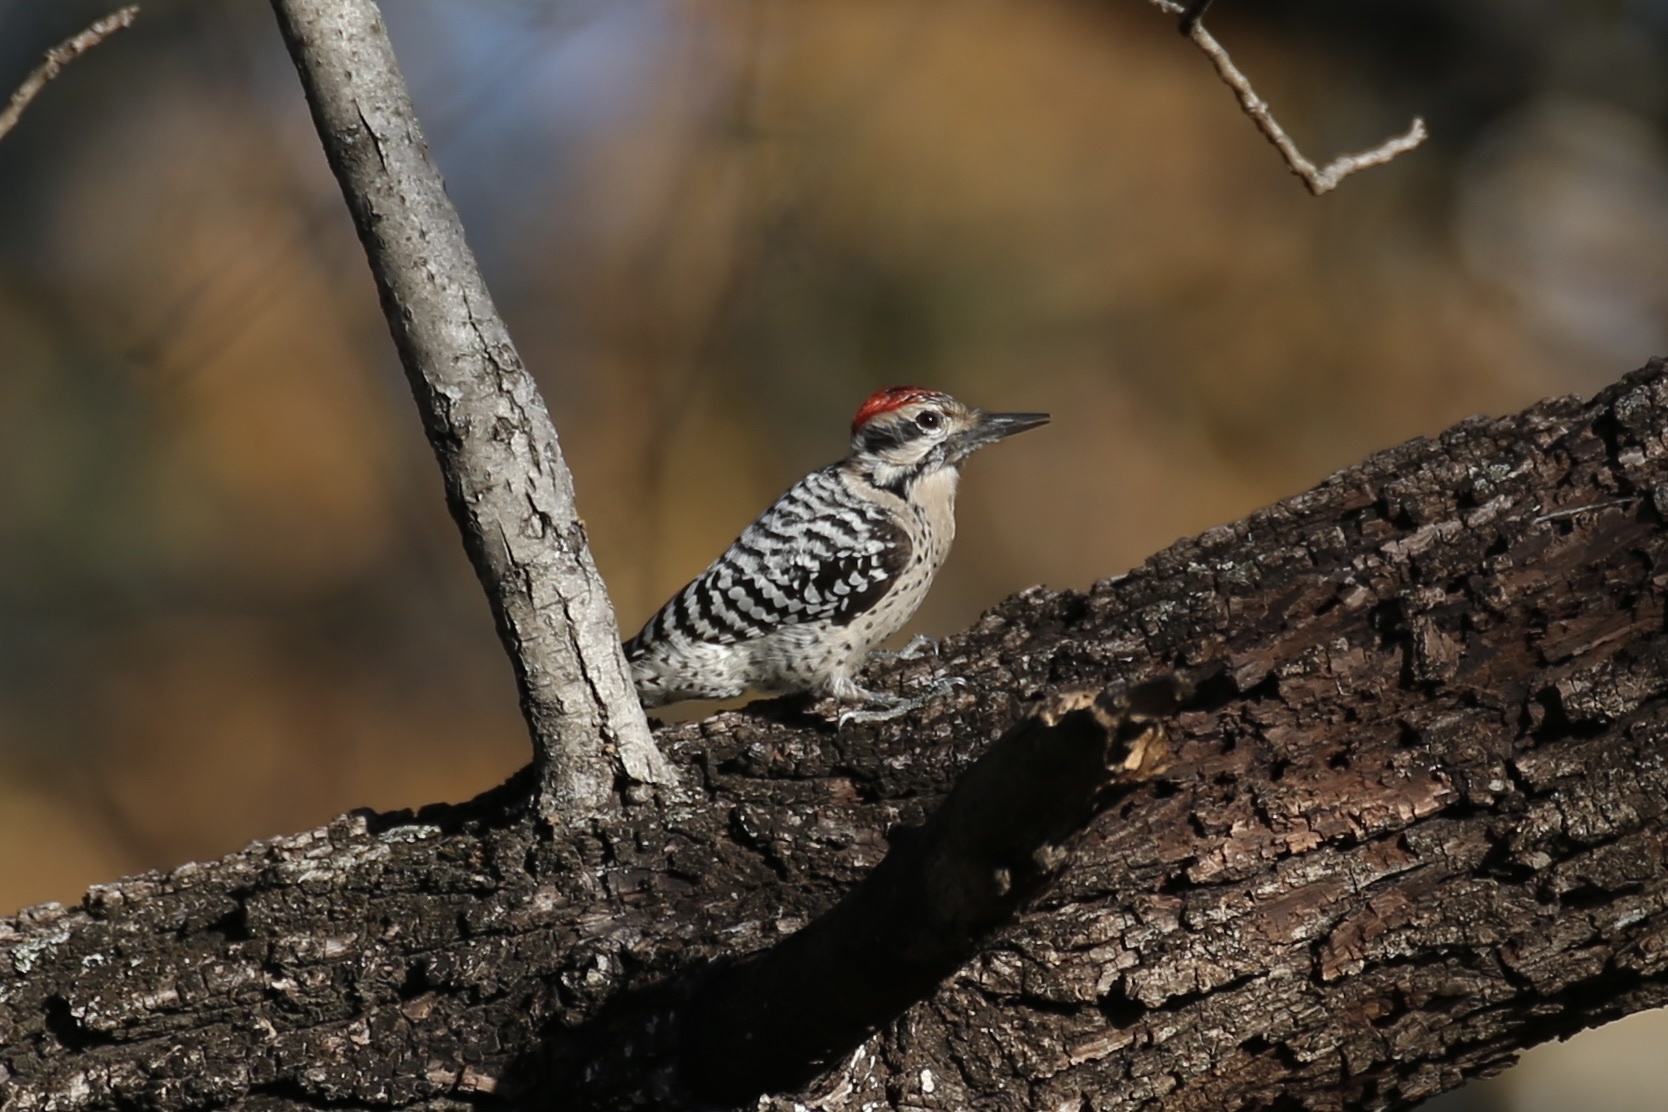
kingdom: Animalia
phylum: Chordata
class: Aves
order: Piciformes
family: Picidae
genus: Dryobates
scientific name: Dryobates scalaris
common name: Ladder-backed woodpecker
